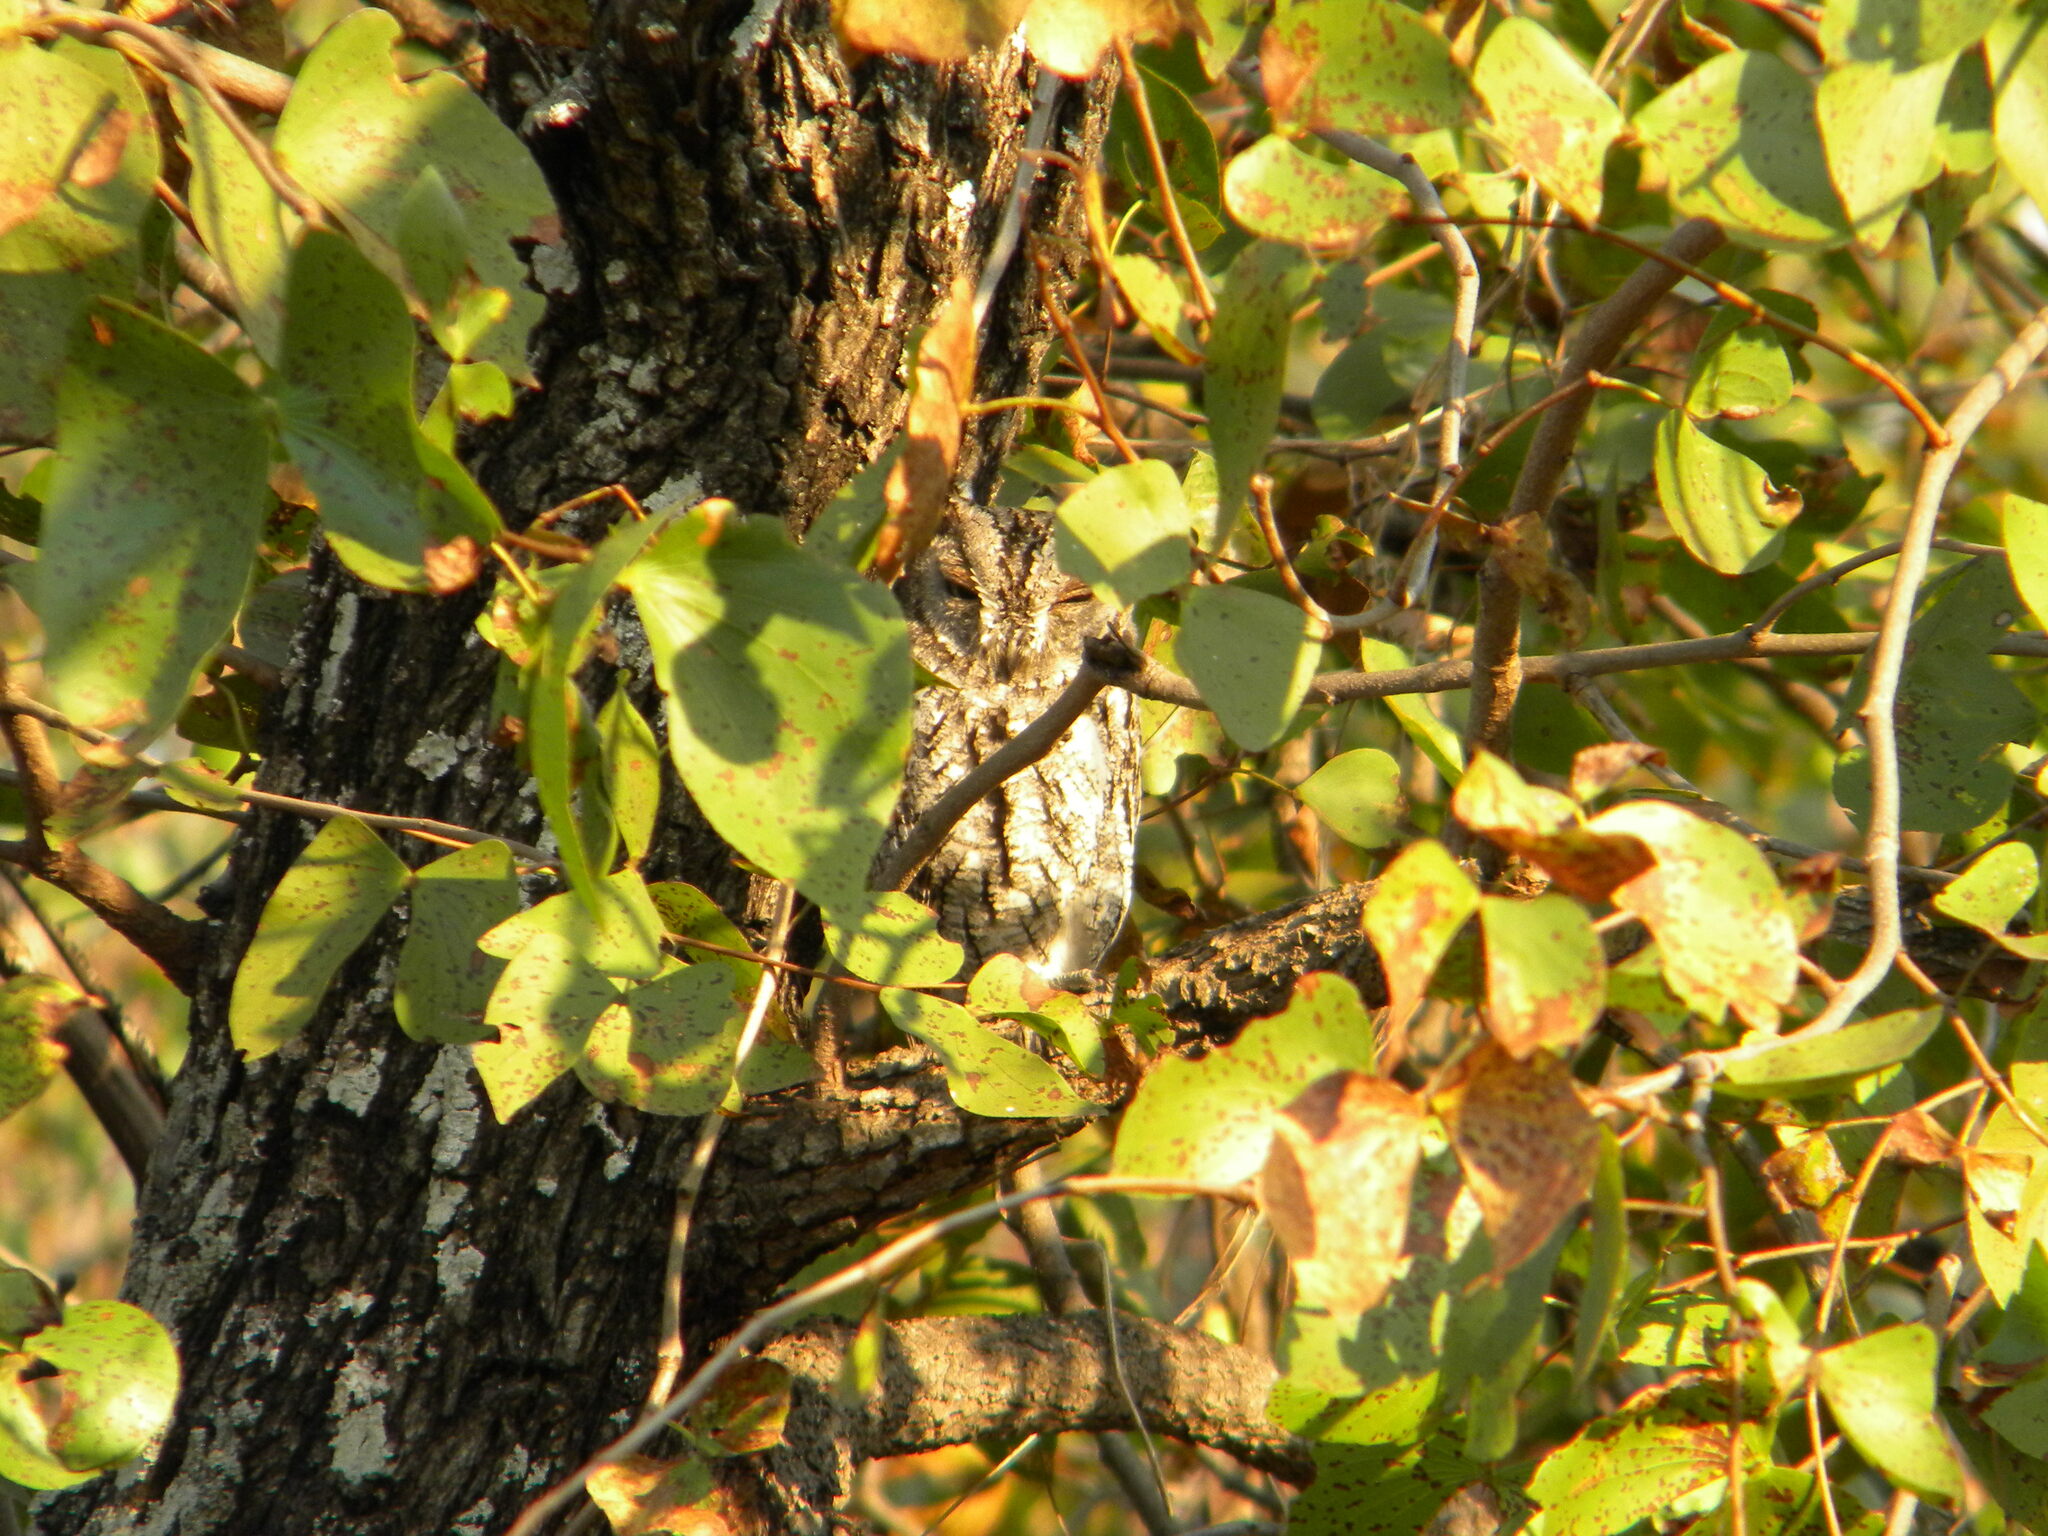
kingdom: Animalia
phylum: Chordata
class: Aves
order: Strigiformes
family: Strigidae
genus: Otus
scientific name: Otus senegalensis
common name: African scops owl
